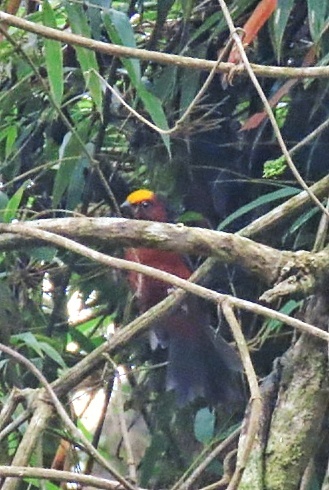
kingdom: Animalia
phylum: Chordata
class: Aves
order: Passeriformes
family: Thraupidae
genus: Catamblyrhynchus
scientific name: Catamblyrhynchus diadema
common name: Plushcap
